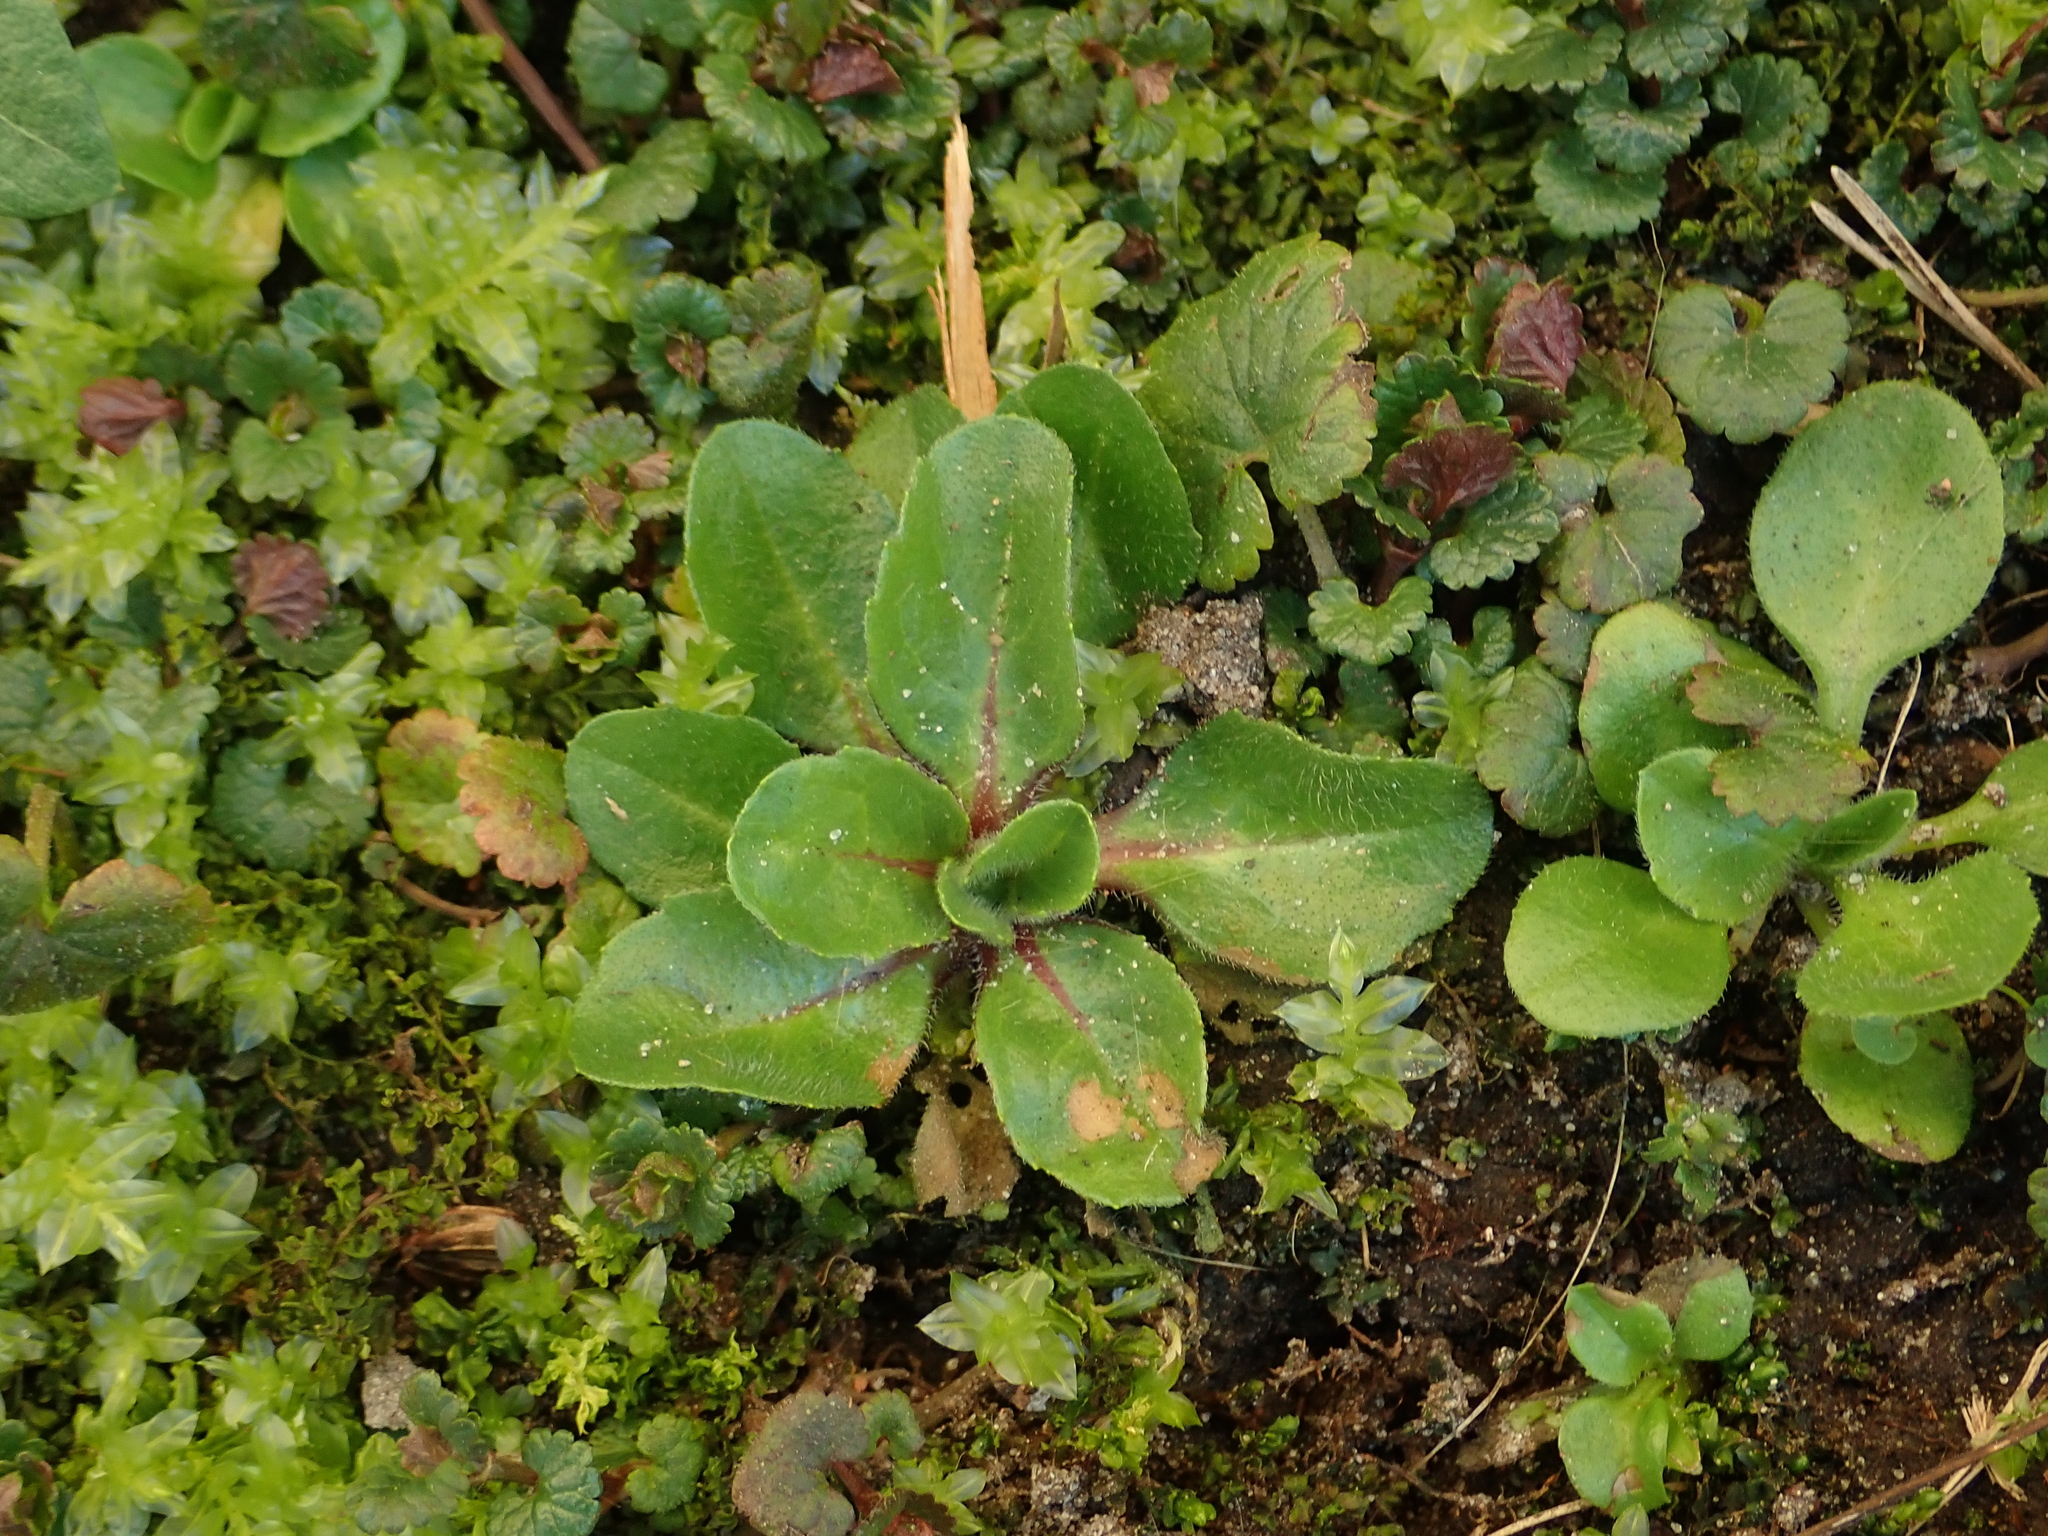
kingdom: Plantae
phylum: Tracheophyta
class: Magnoliopsida
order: Asterales
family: Asteraceae
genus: Bellis
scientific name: Bellis perennis
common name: Lawndaisy
